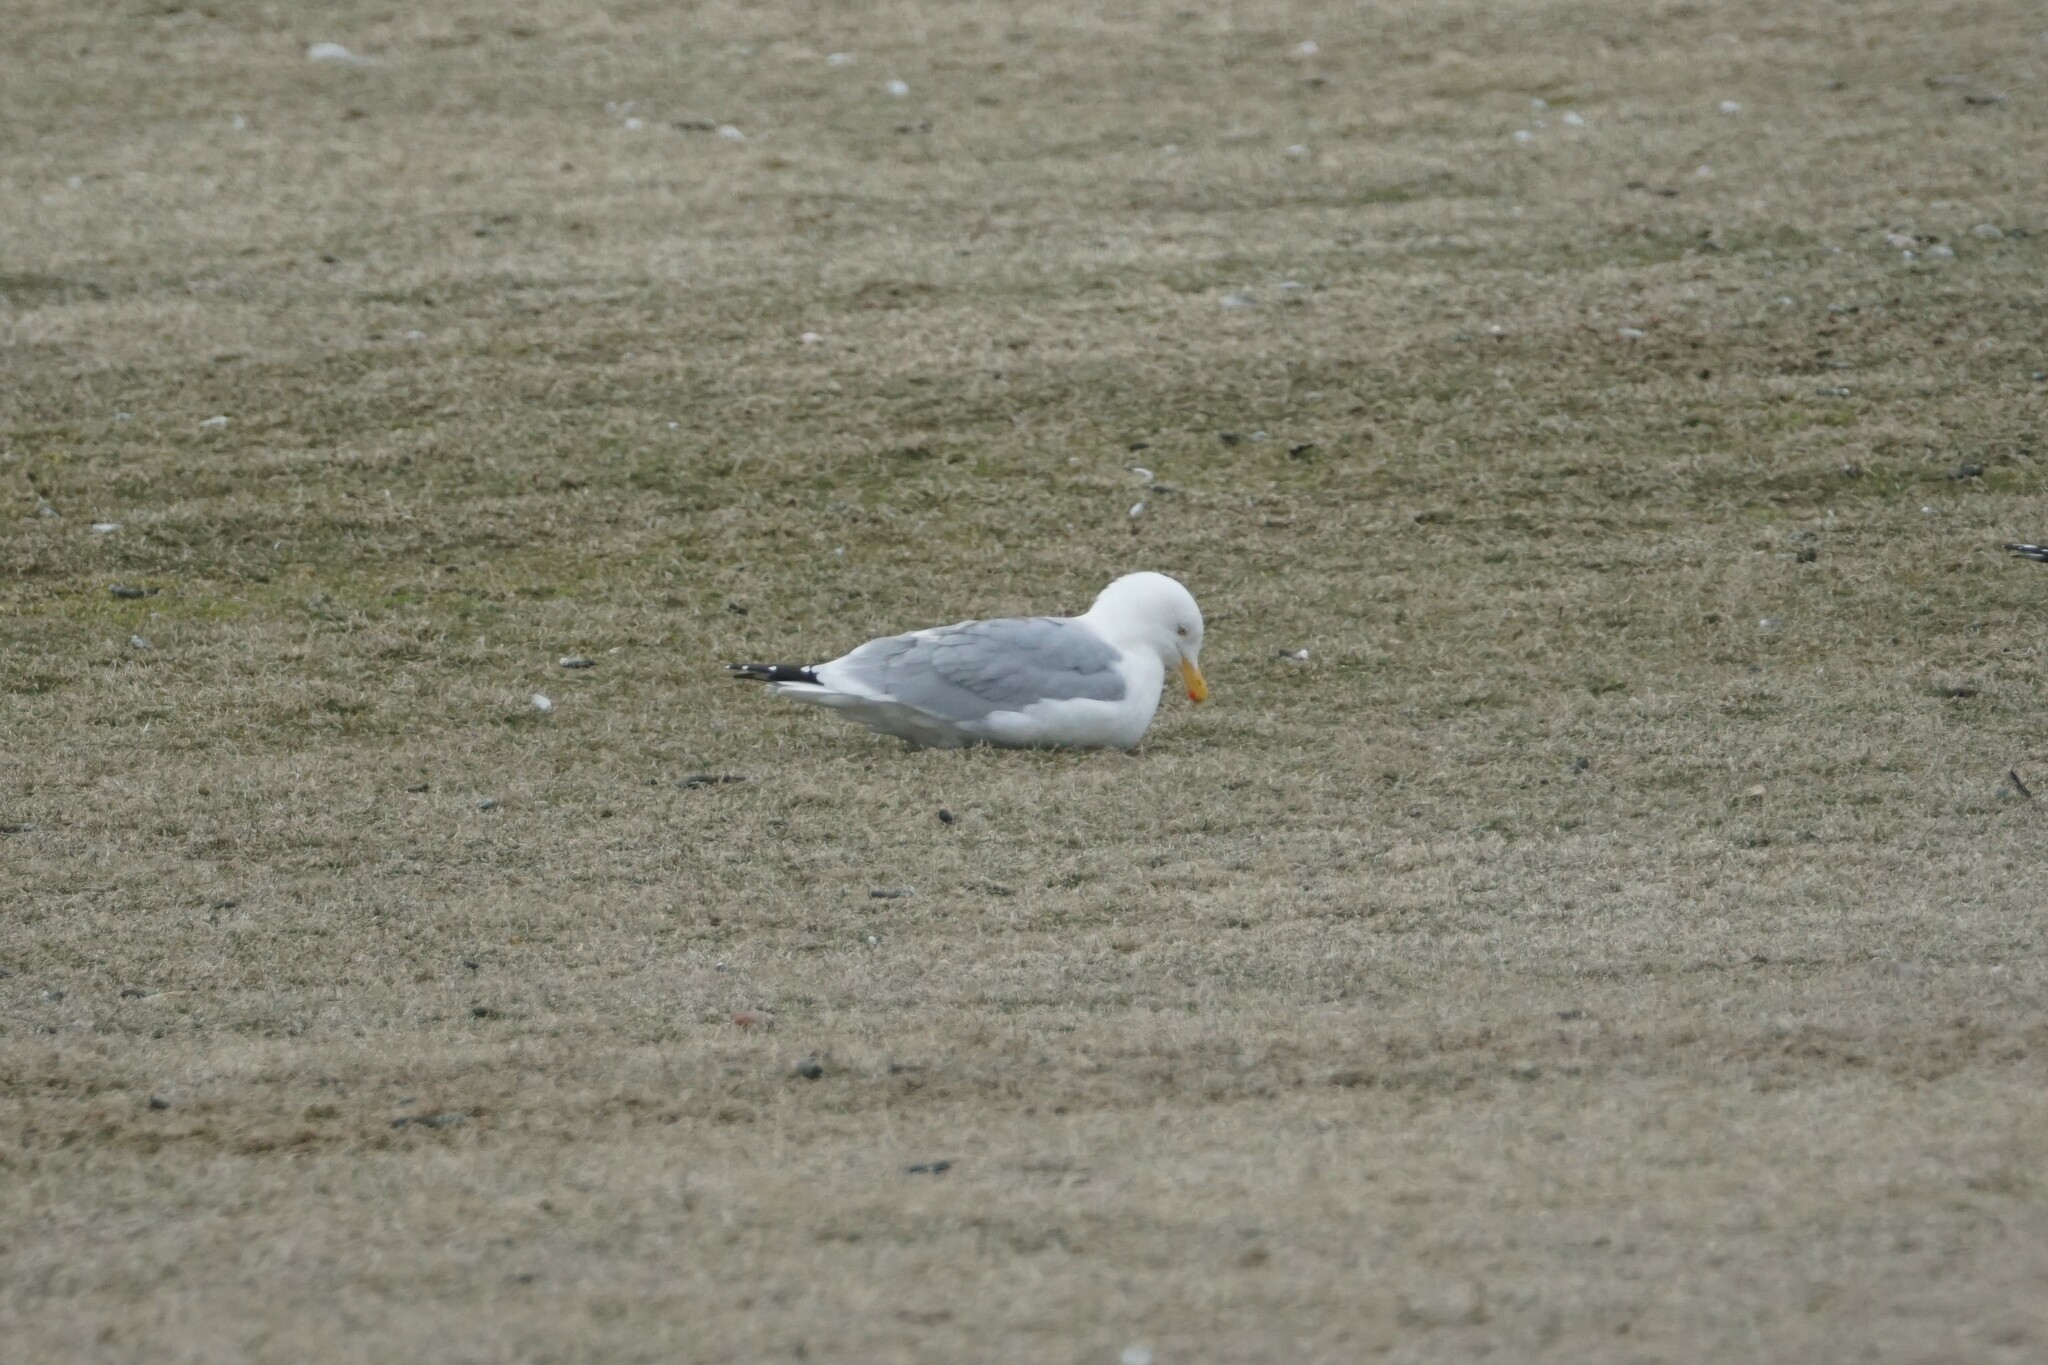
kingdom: Animalia
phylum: Chordata
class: Aves
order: Charadriiformes
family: Laridae
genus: Larus
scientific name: Larus argentatus
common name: Herring gull
